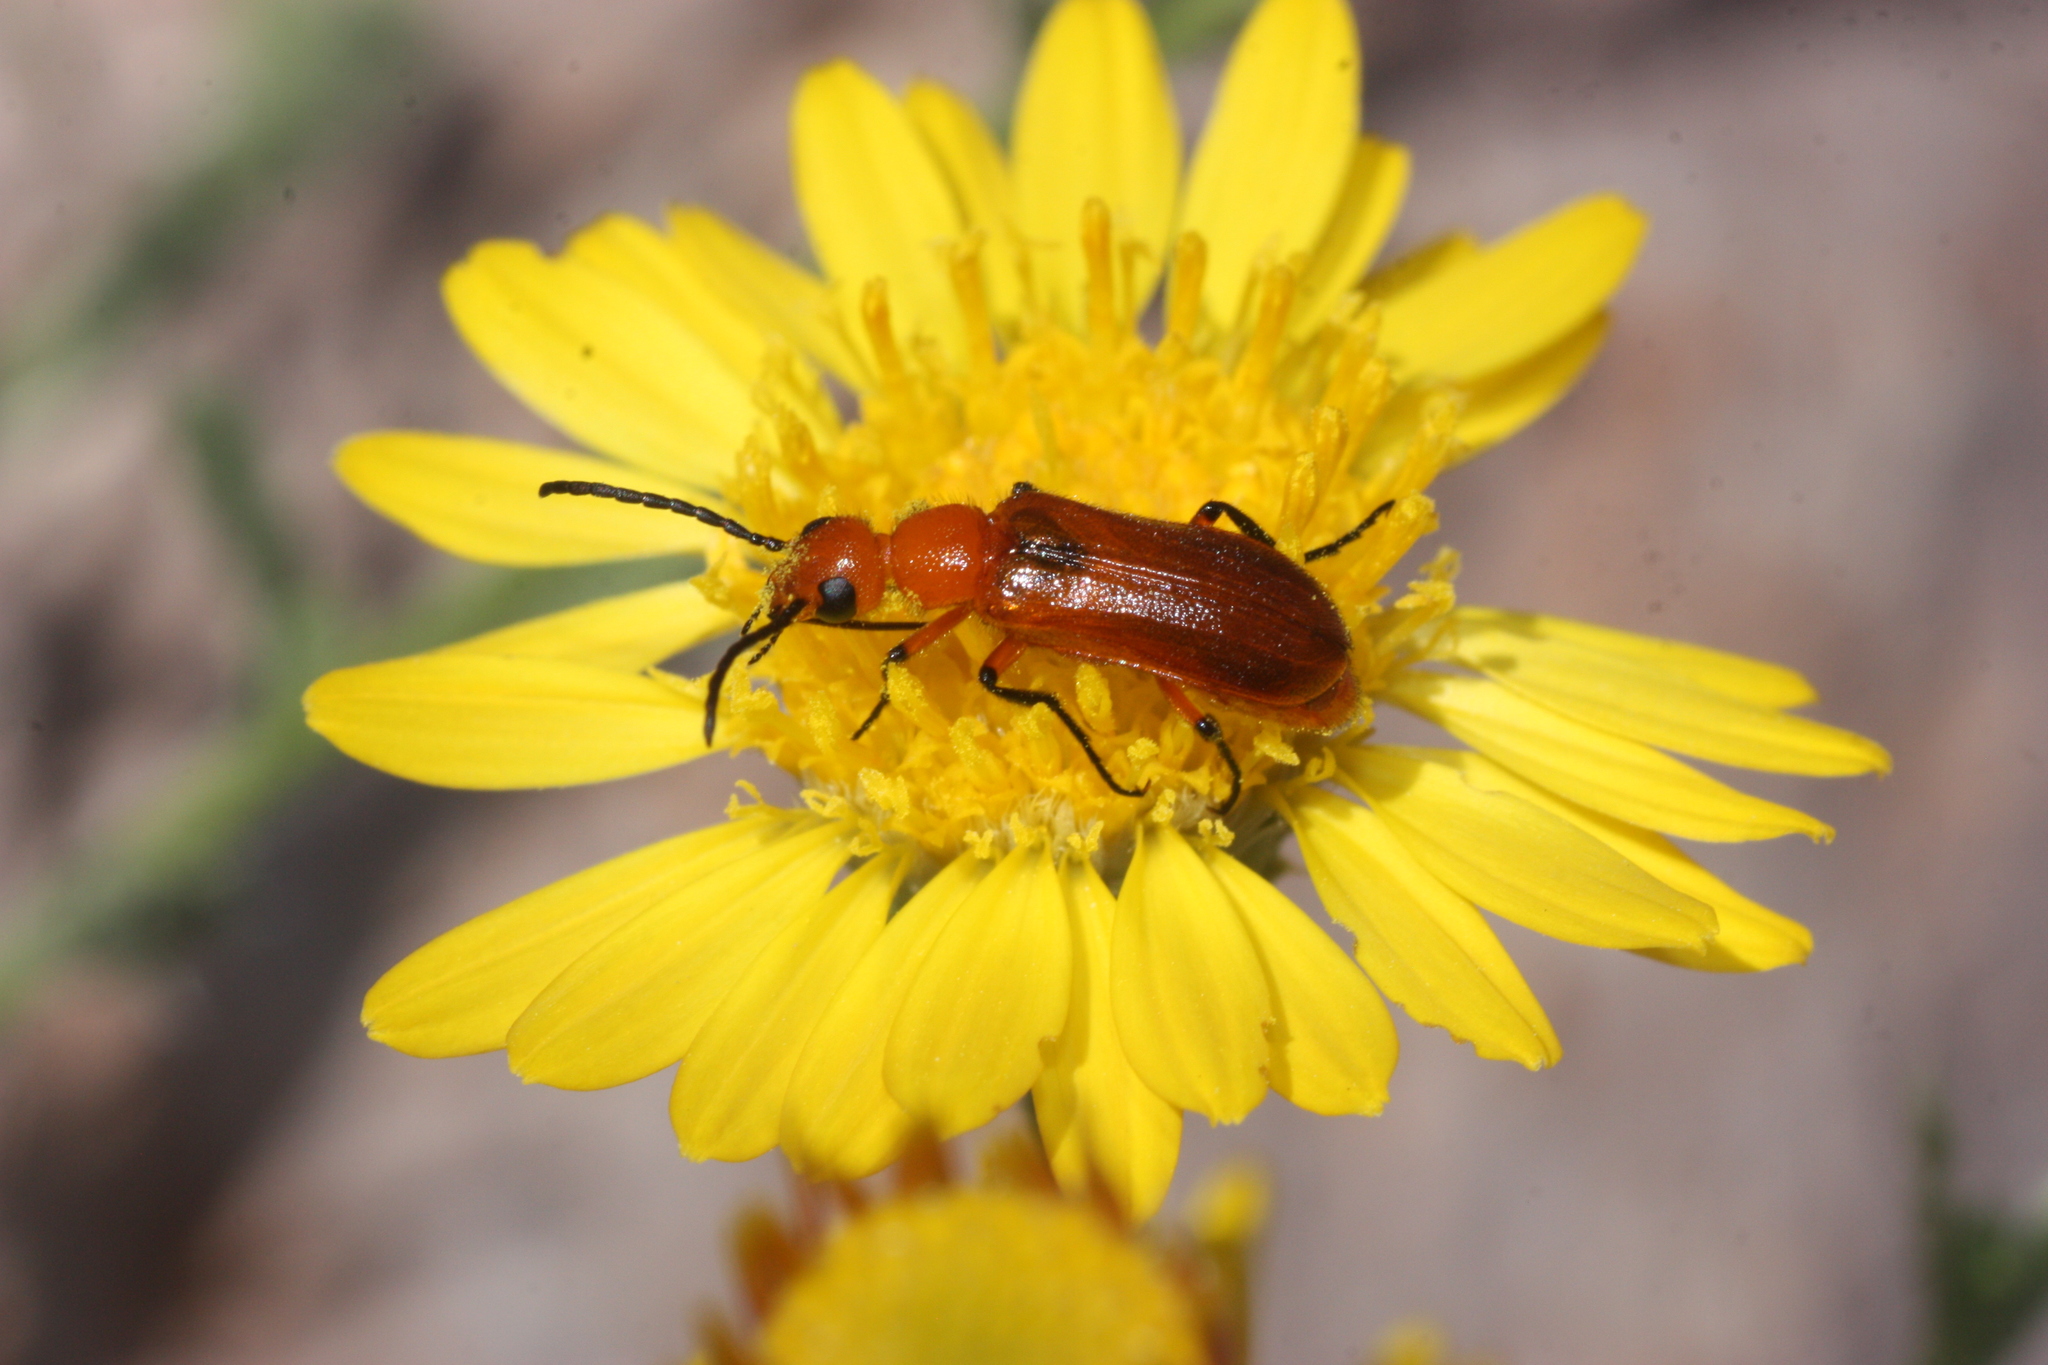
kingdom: Animalia
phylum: Arthropoda
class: Insecta
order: Coleoptera
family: Meloidae
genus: Nemognatha
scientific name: Nemognatha nigripennis
